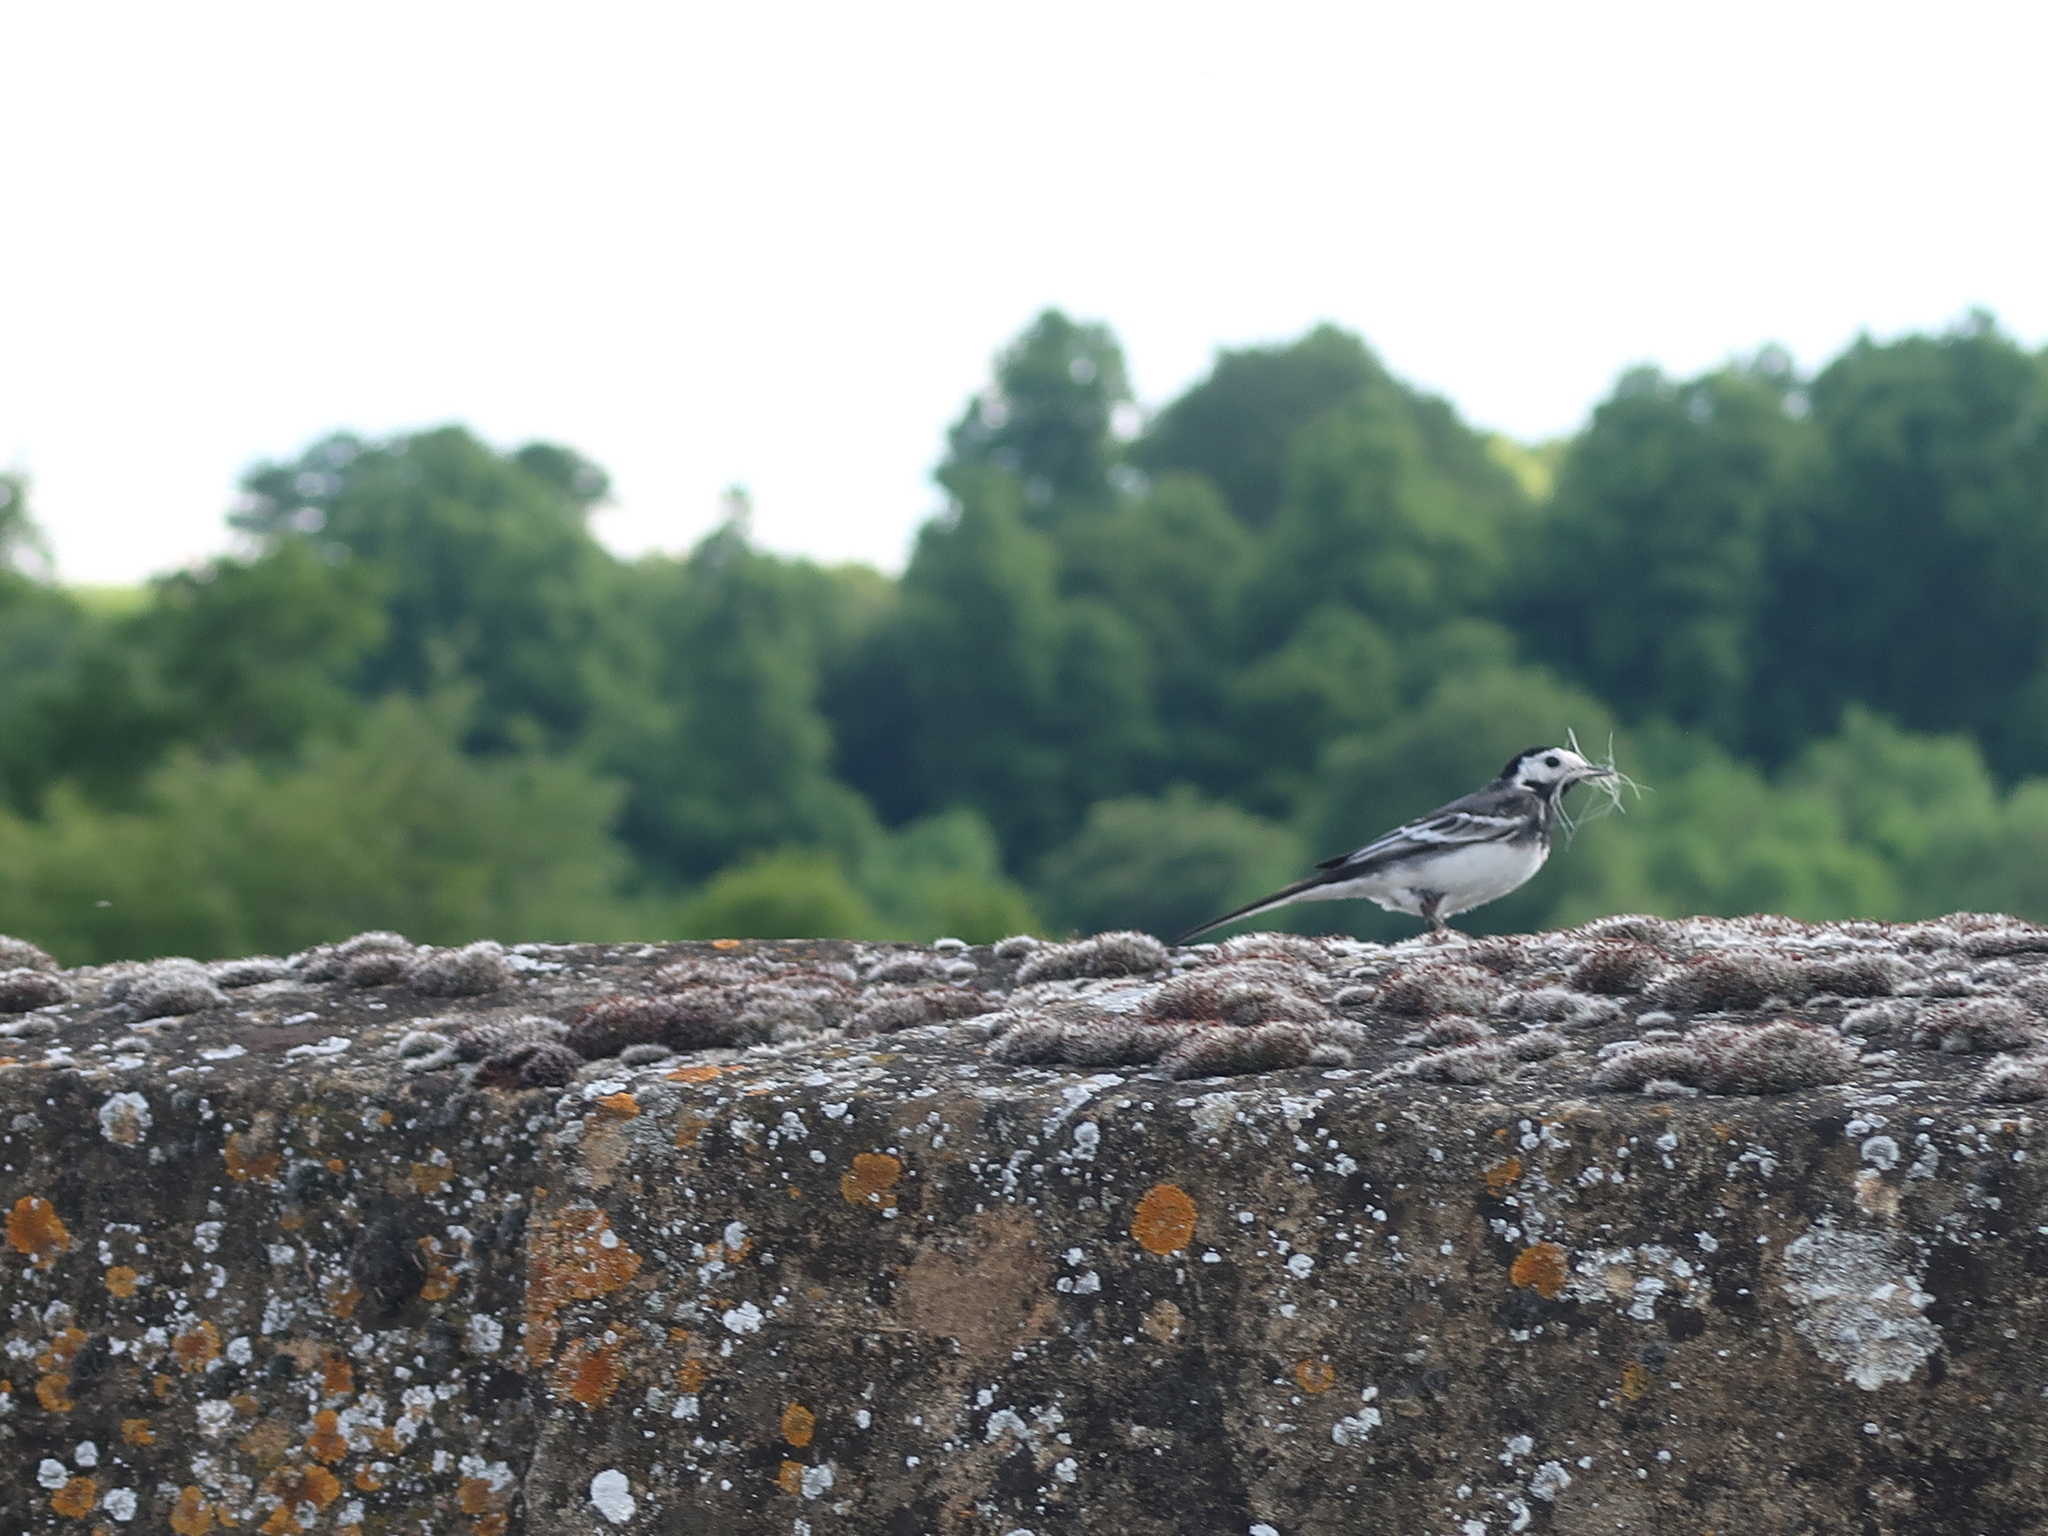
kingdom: Animalia
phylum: Chordata
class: Aves
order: Passeriformes
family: Motacillidae
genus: Motacilla
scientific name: Motacilla alba
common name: White wagtail
